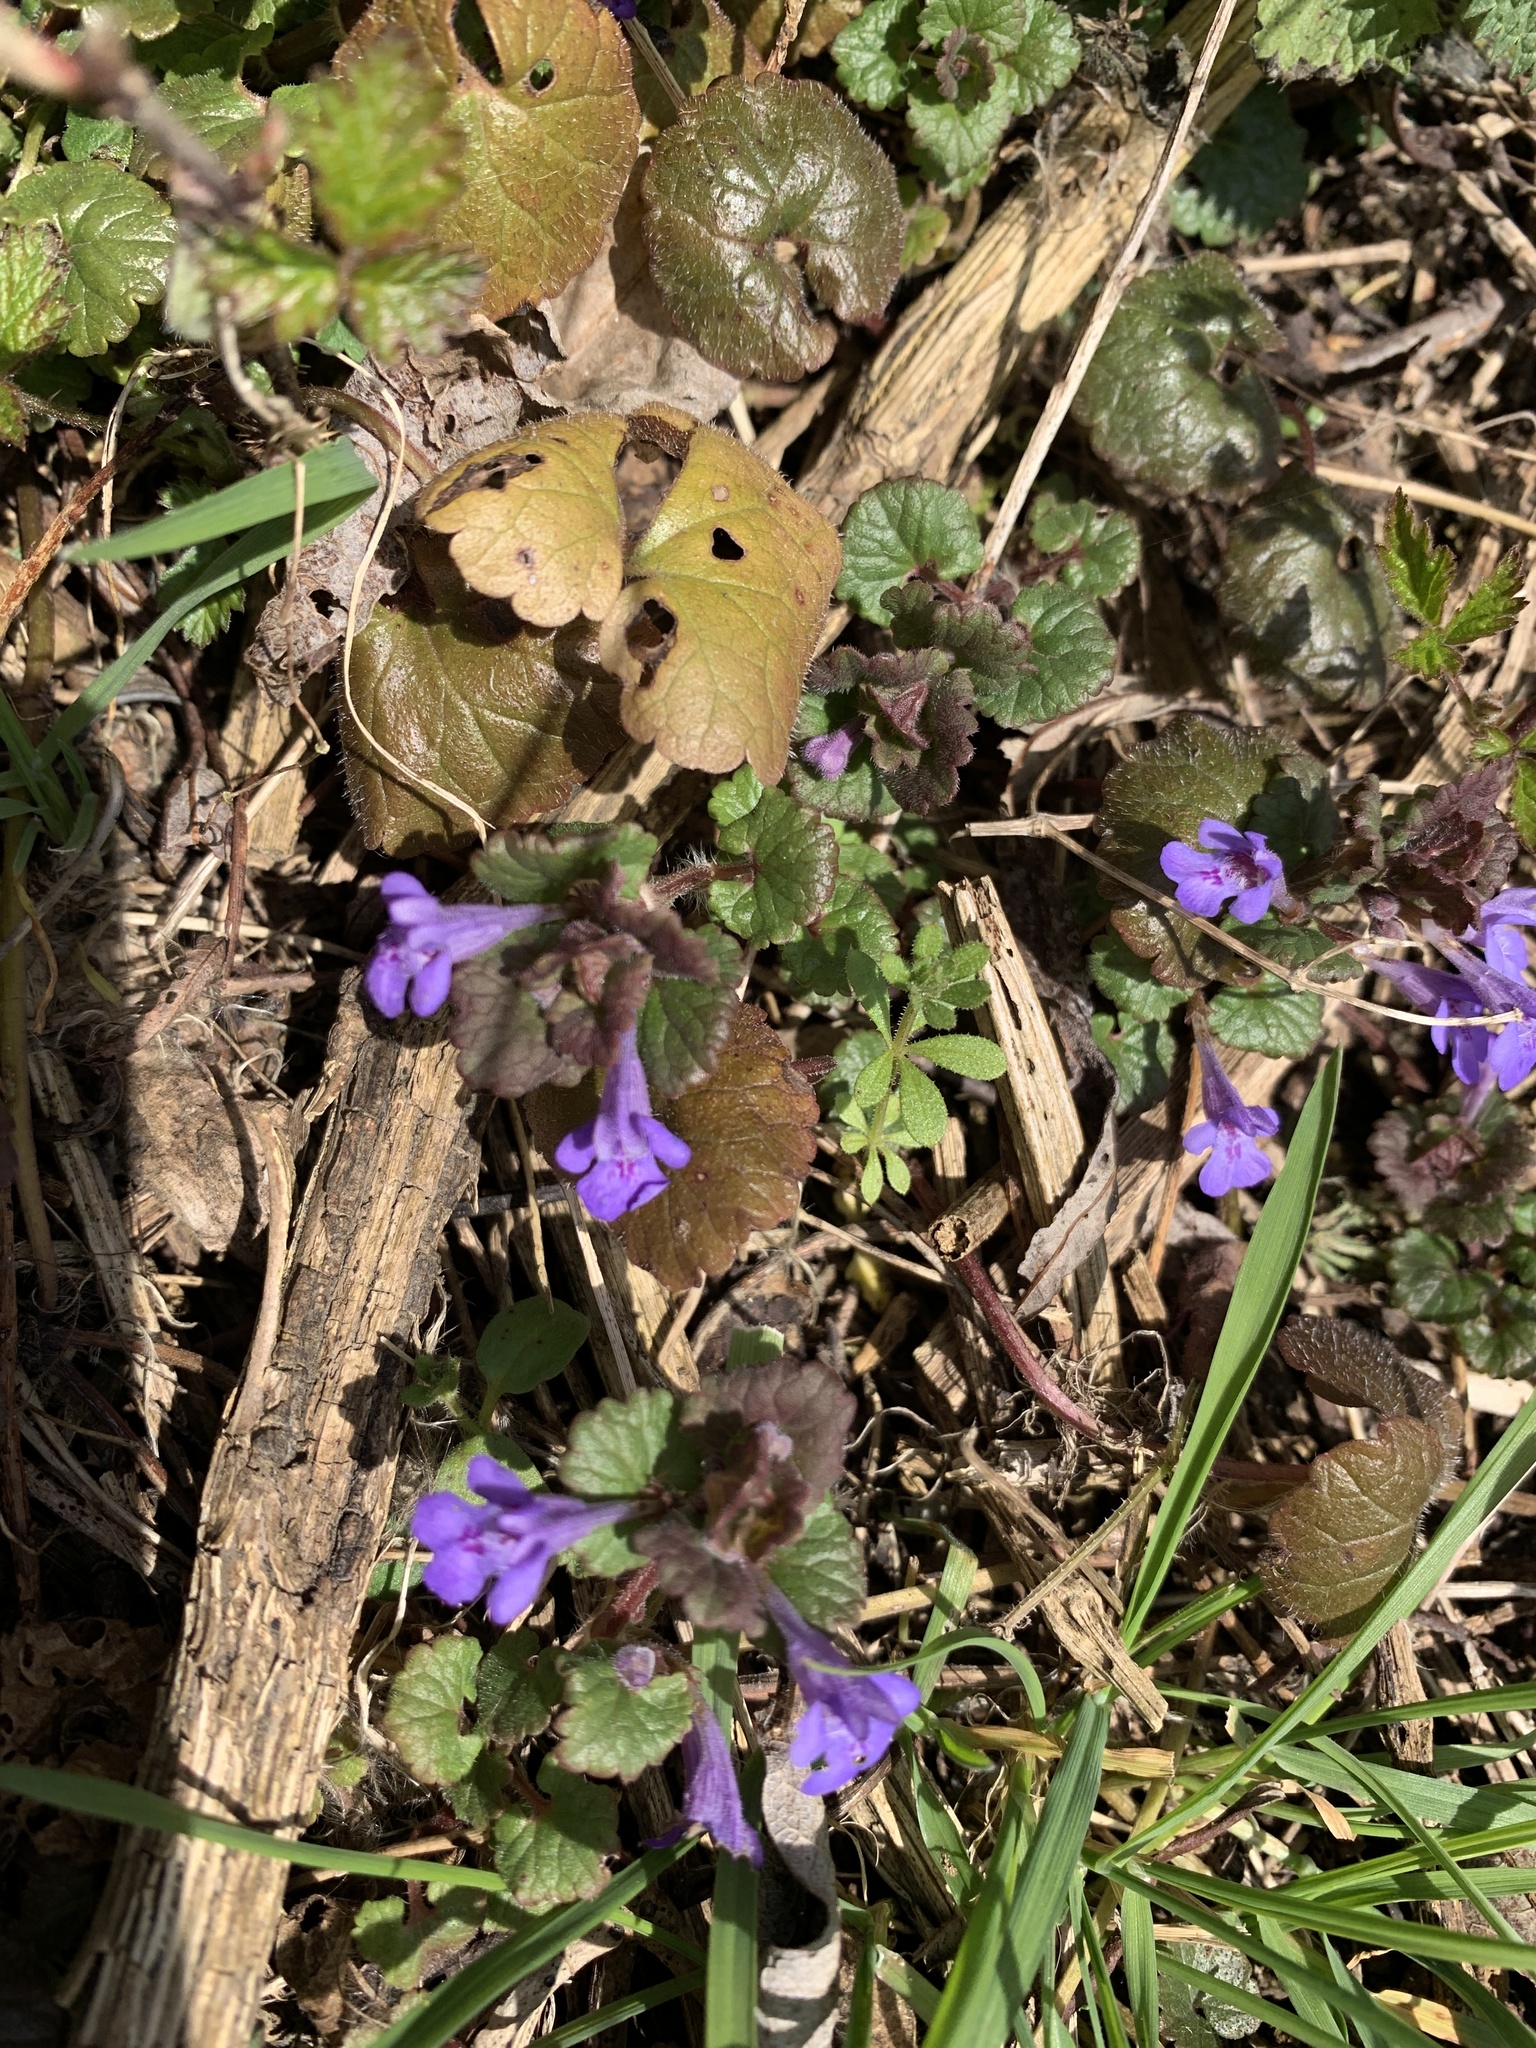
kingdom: Plantae
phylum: Tracheophyta
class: Magnoliopsida
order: Lamiales
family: Lamiaceae
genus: Glechoma
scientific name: Glechoma hederacea
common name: Ground ivy
